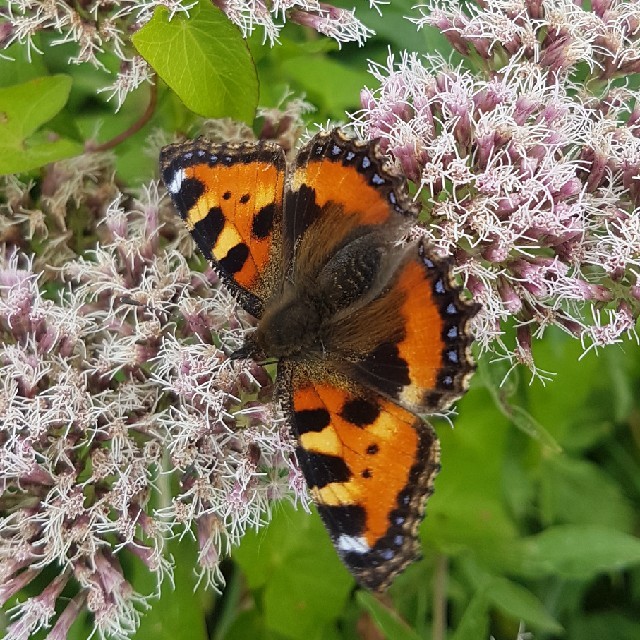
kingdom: Animalia
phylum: Arthropoda
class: Insecta
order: Lepidoptera
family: Nymphalidae
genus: Aglais
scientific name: Aglais urticae
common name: Small tortoiseshell
